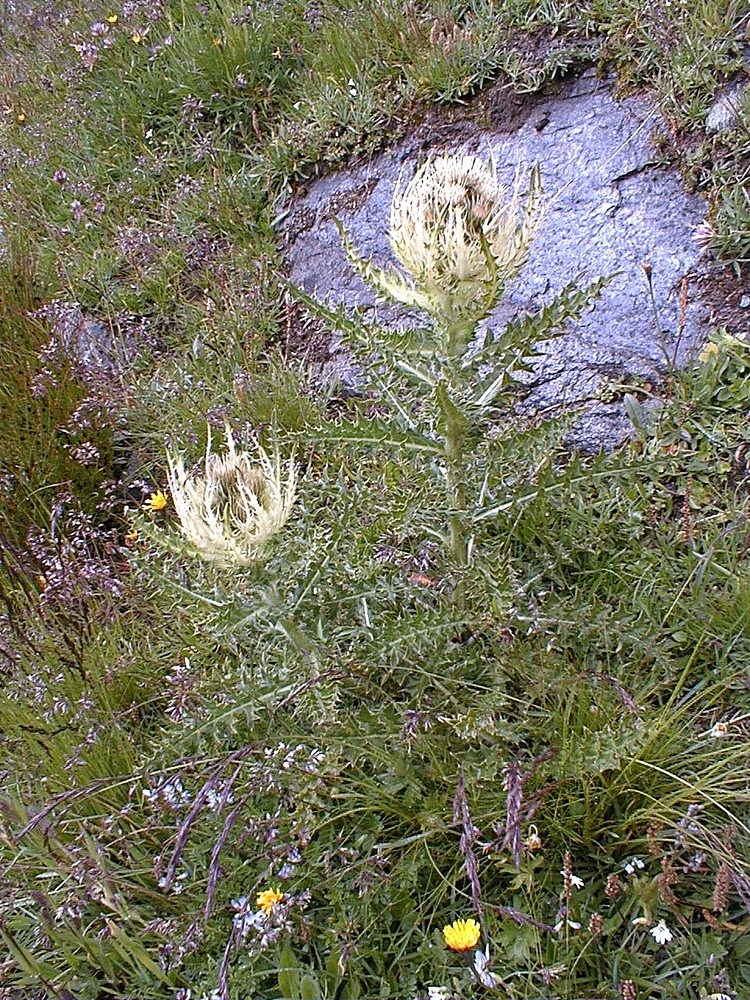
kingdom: Plantae
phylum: Tracheophyta
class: Magnoliopsida
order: Asterales
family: Asteraceae
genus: Cirsium
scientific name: Cirsium spinosissimum
